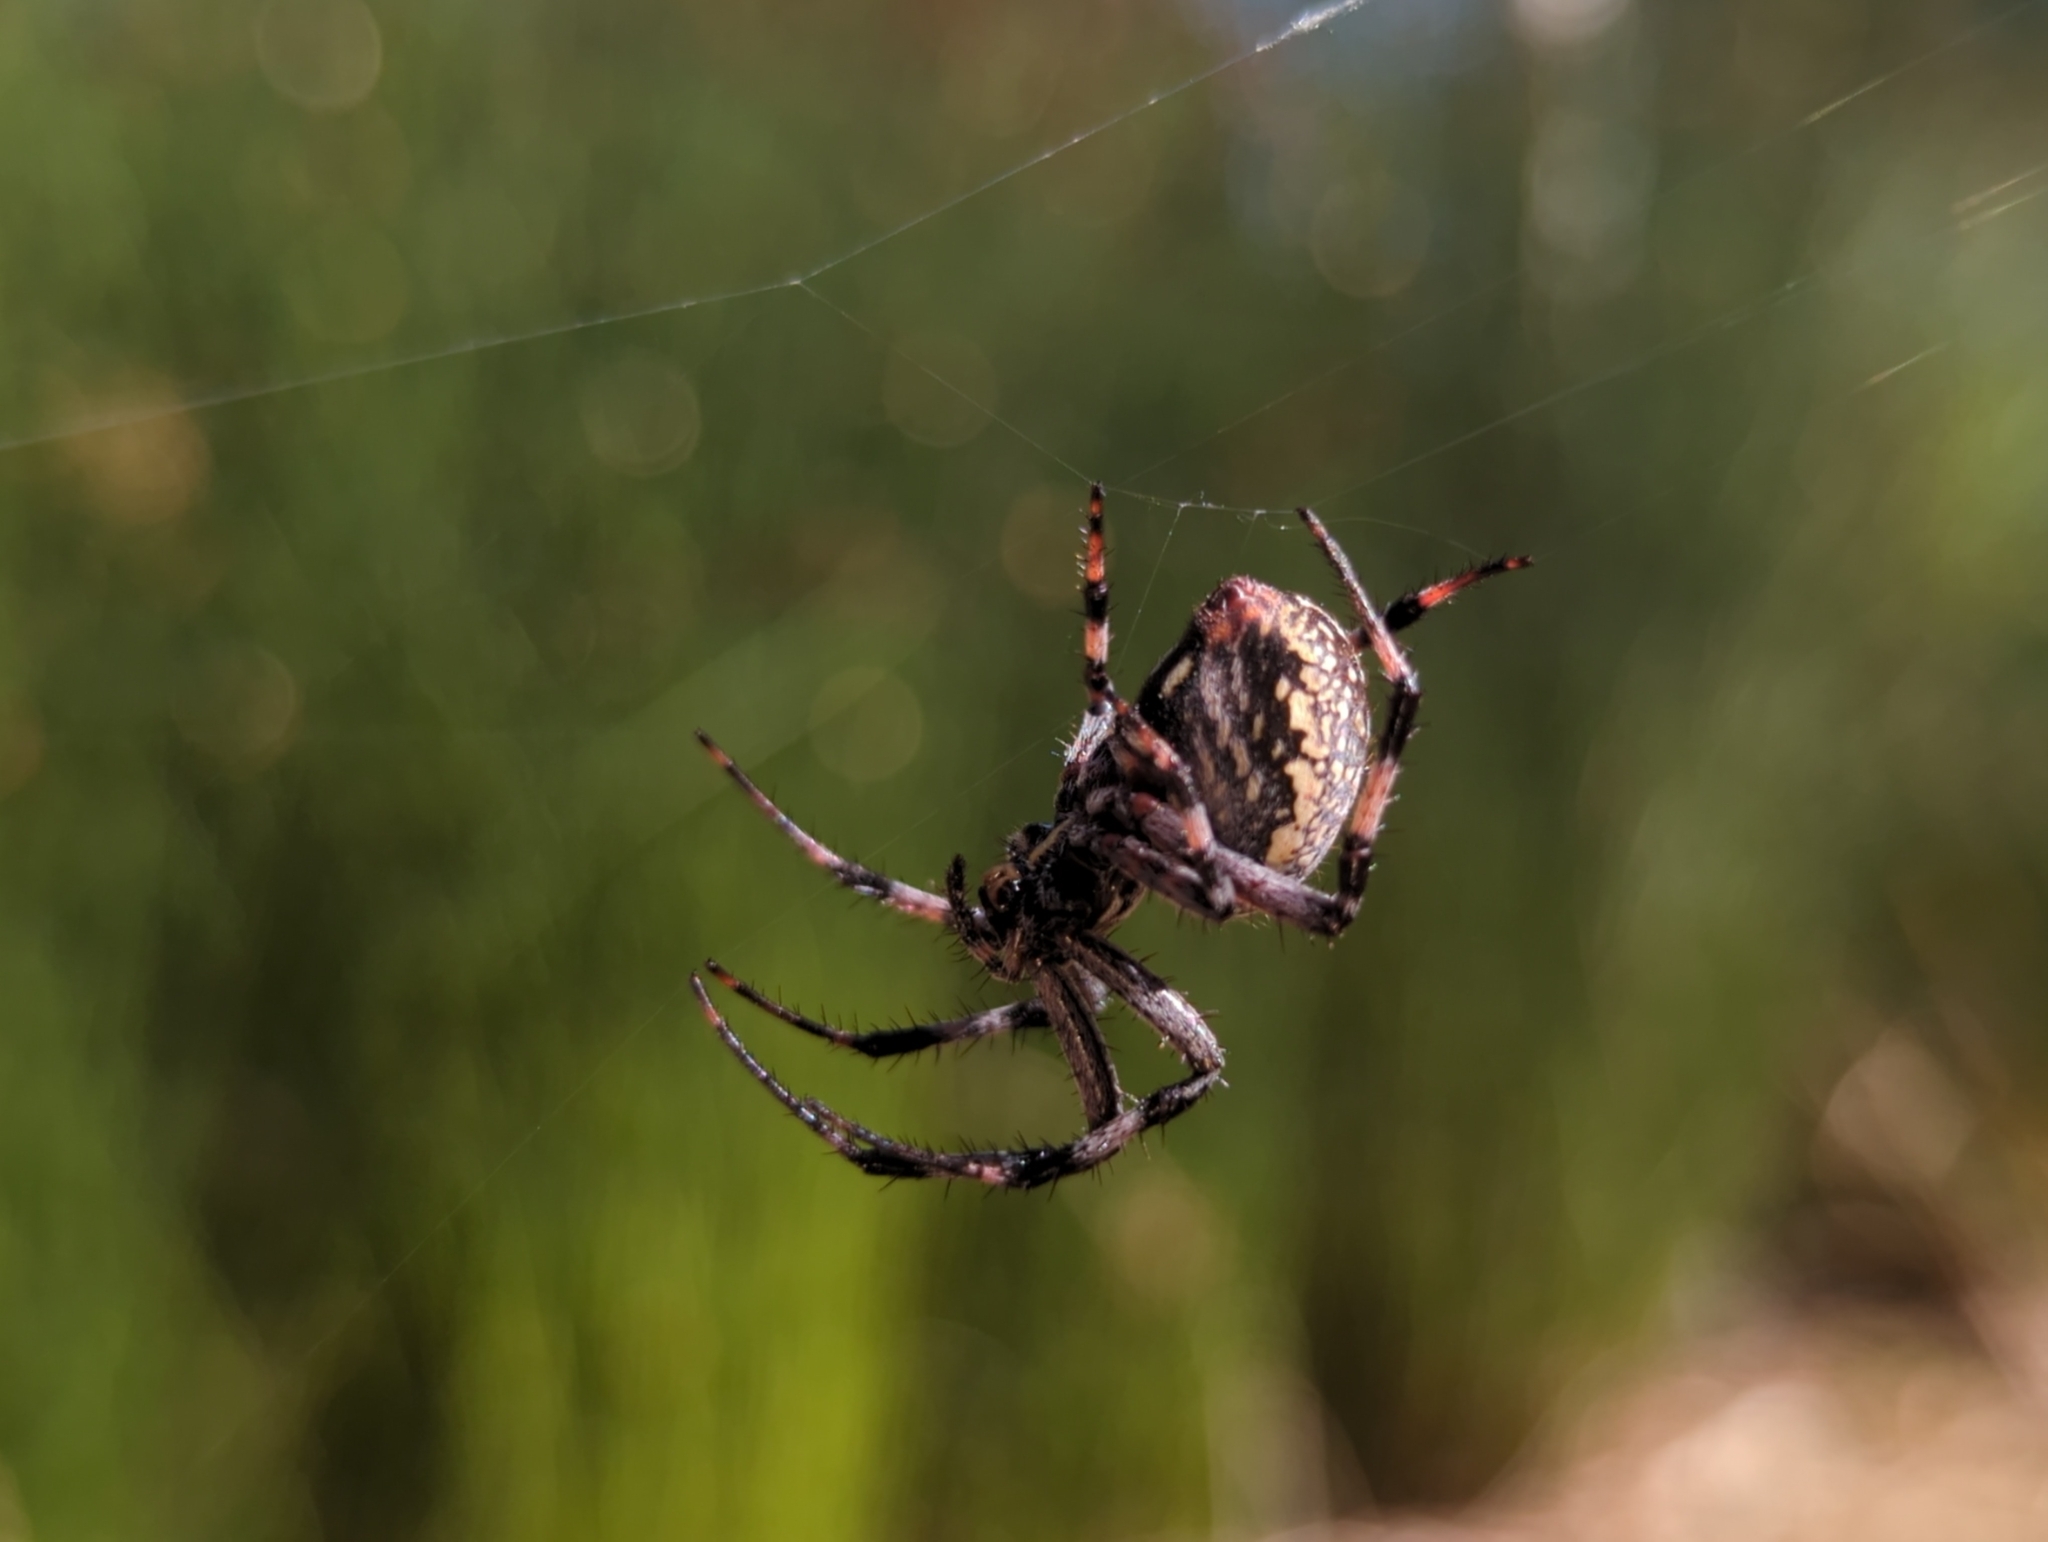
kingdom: Animalia
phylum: Arthropoda
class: Arachnida
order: Araneae
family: Araneidae
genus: Neoscona
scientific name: Neoscona oaxacensis
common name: Orb weavers
